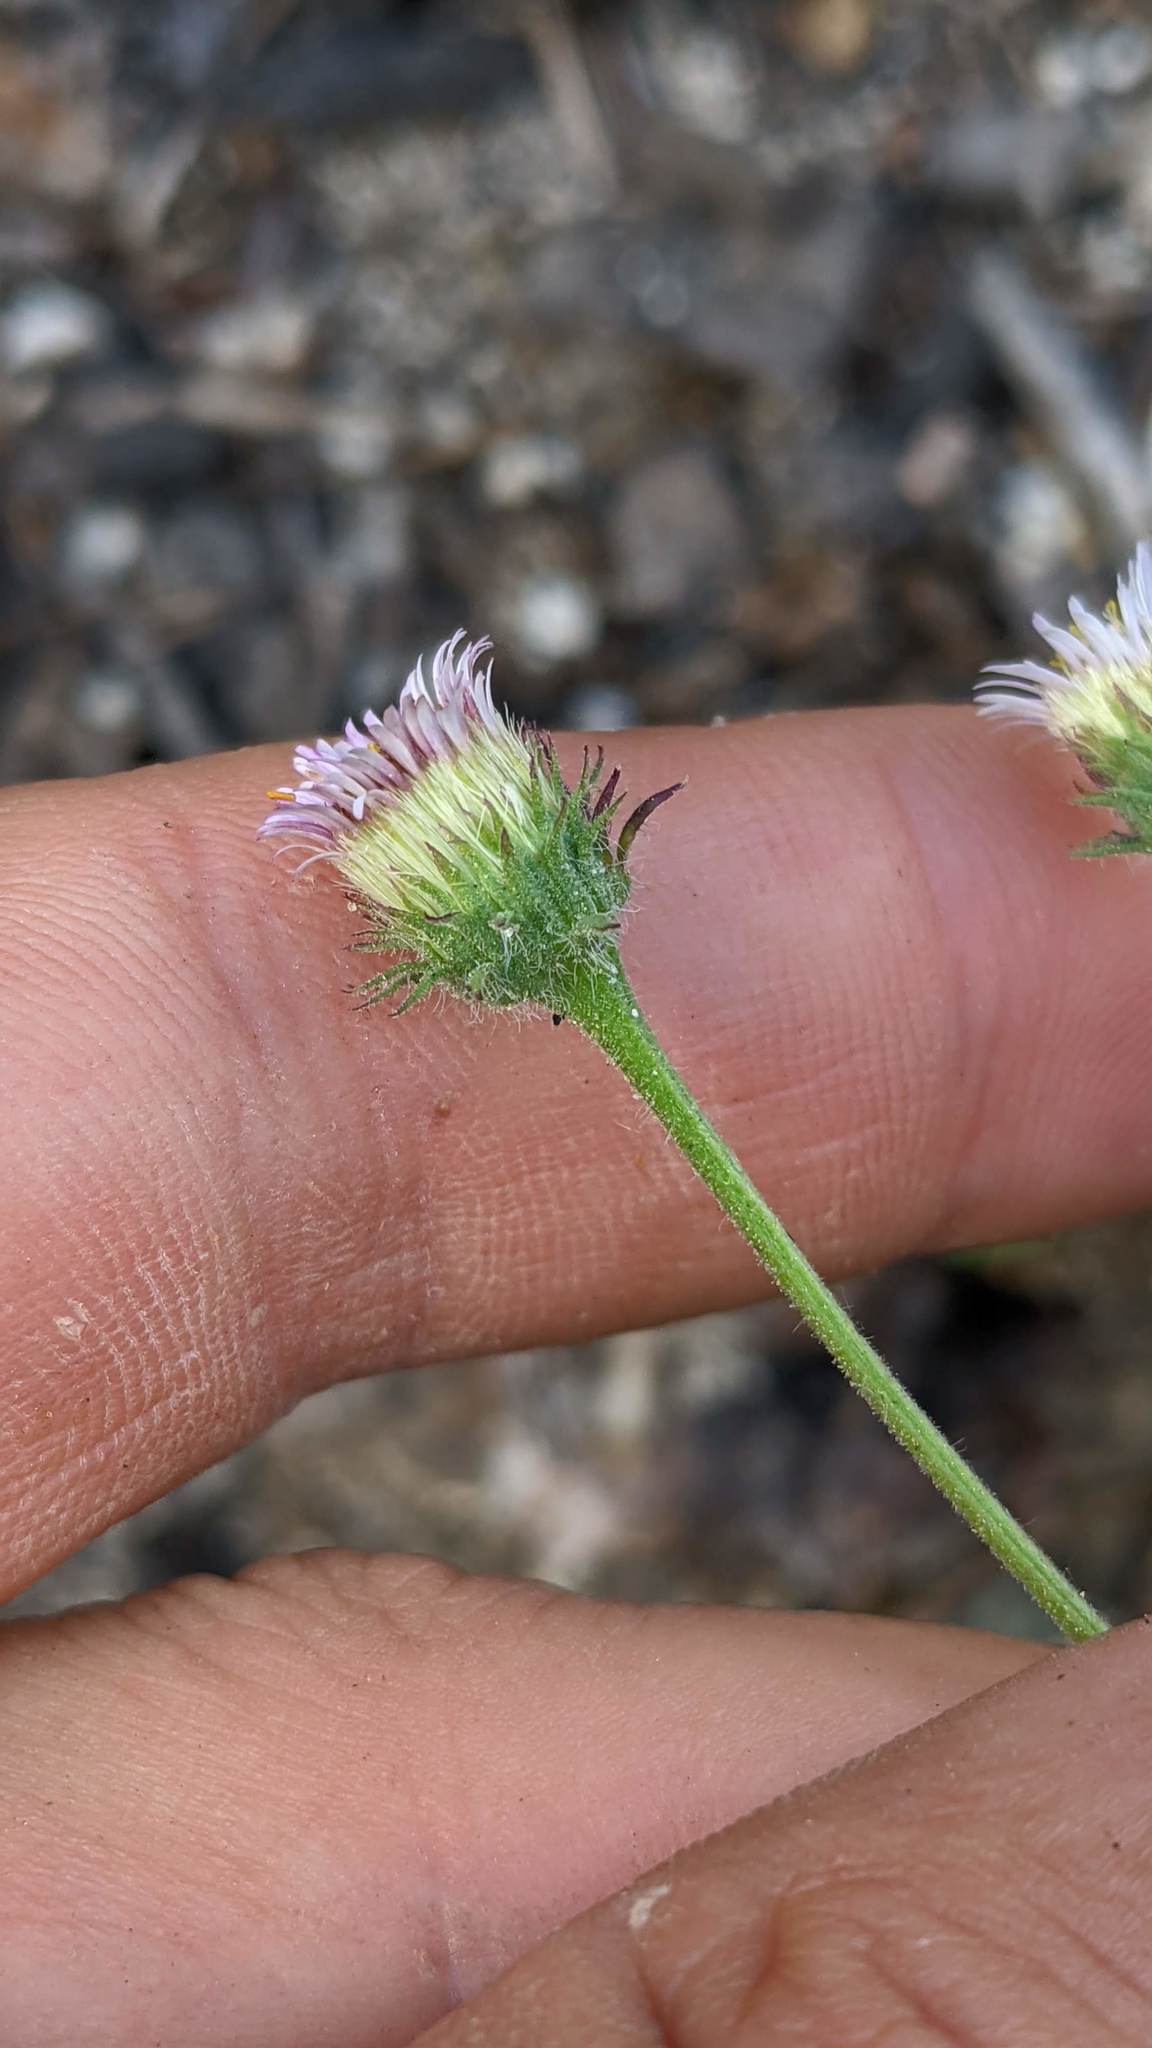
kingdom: Plantae
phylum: Tracheophyta
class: Magnoliopsida
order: Asterales
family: Asteraceae
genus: Erigeron
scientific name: Erigeron nivalis
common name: Snow fleabane
